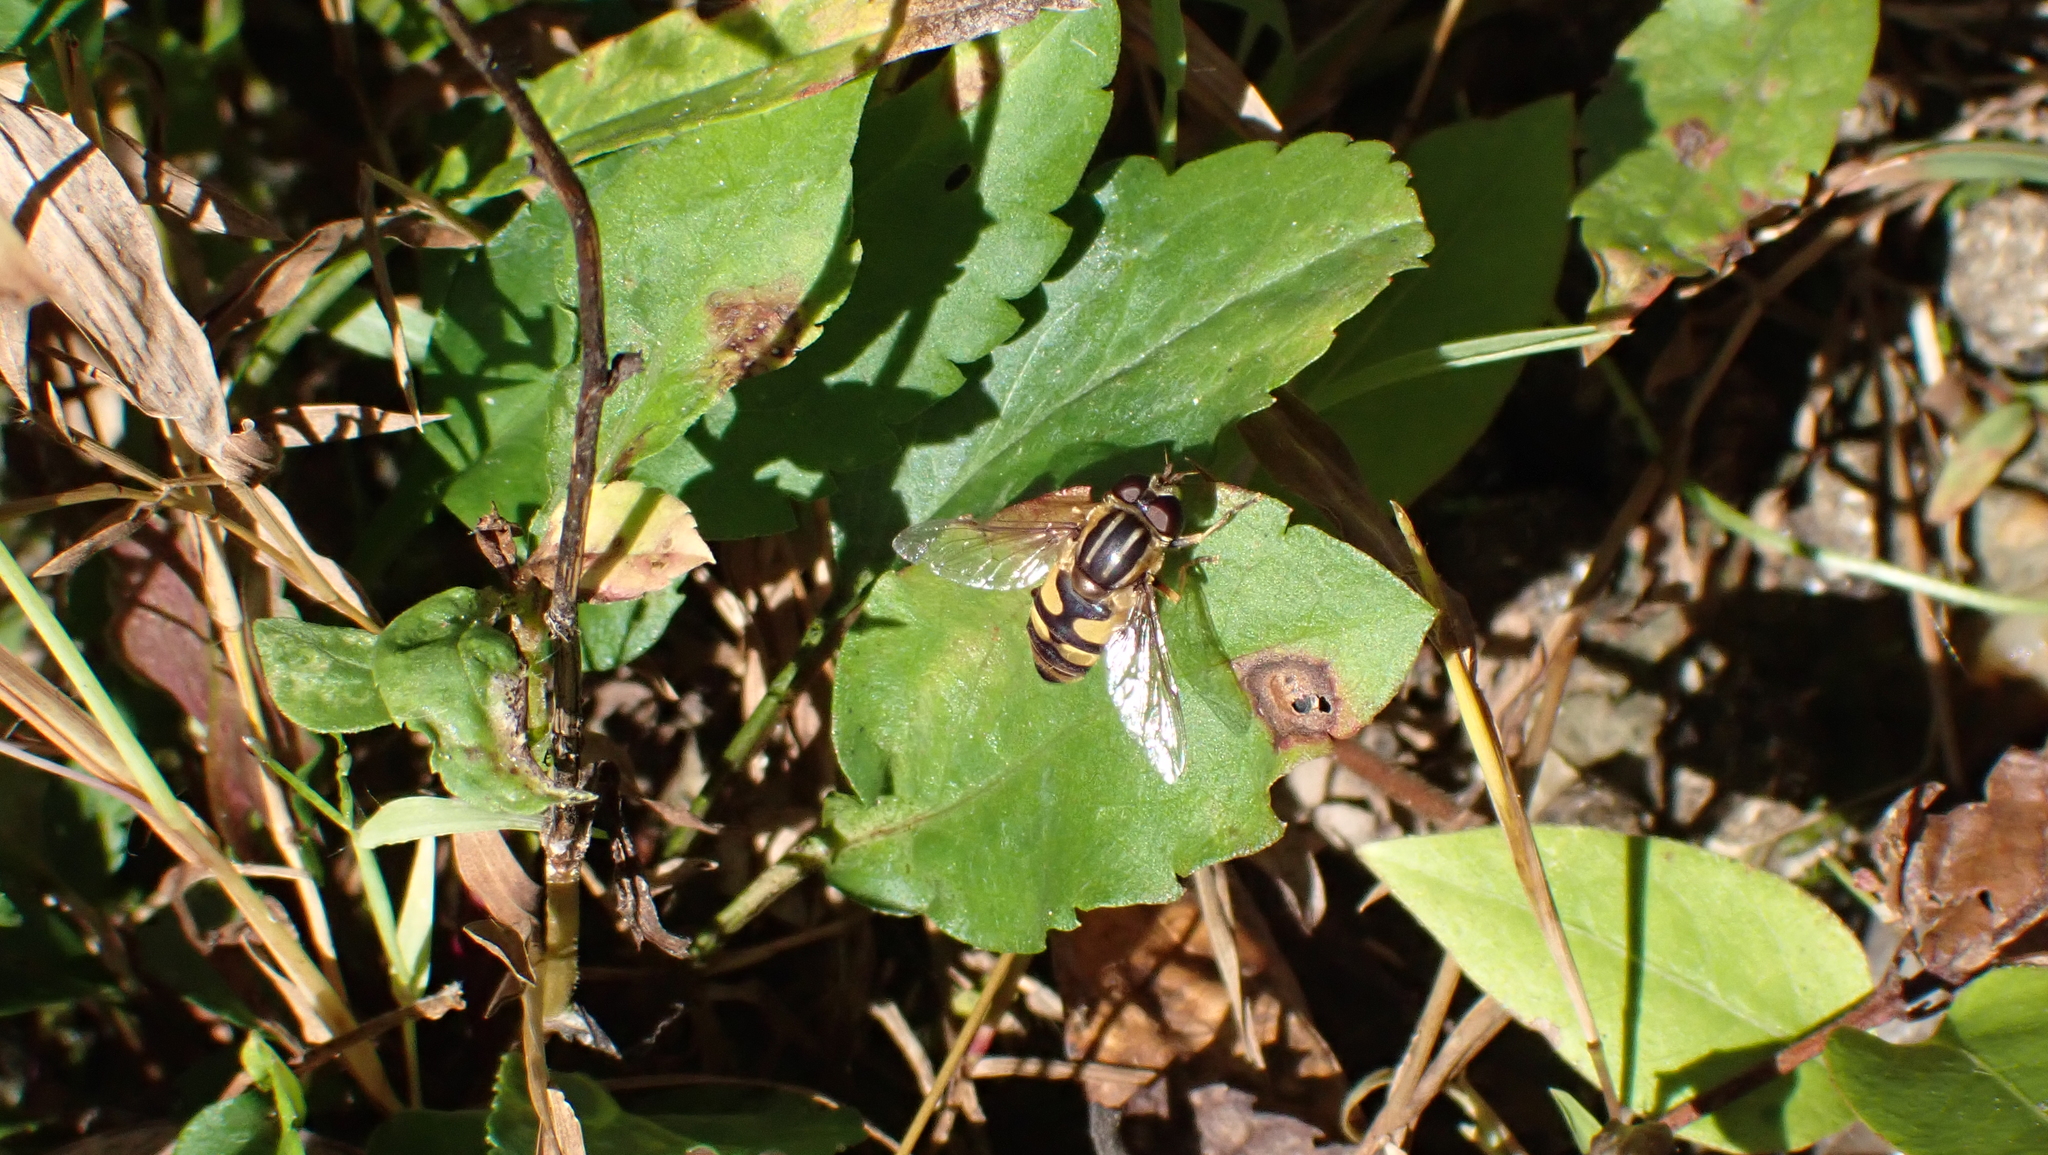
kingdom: Animalia
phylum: Arthropoda
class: Insecta
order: Diptera
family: Syrphidae
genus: Helophilus
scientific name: Helophilus fasciatus
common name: Narrow-headed marsh fly
